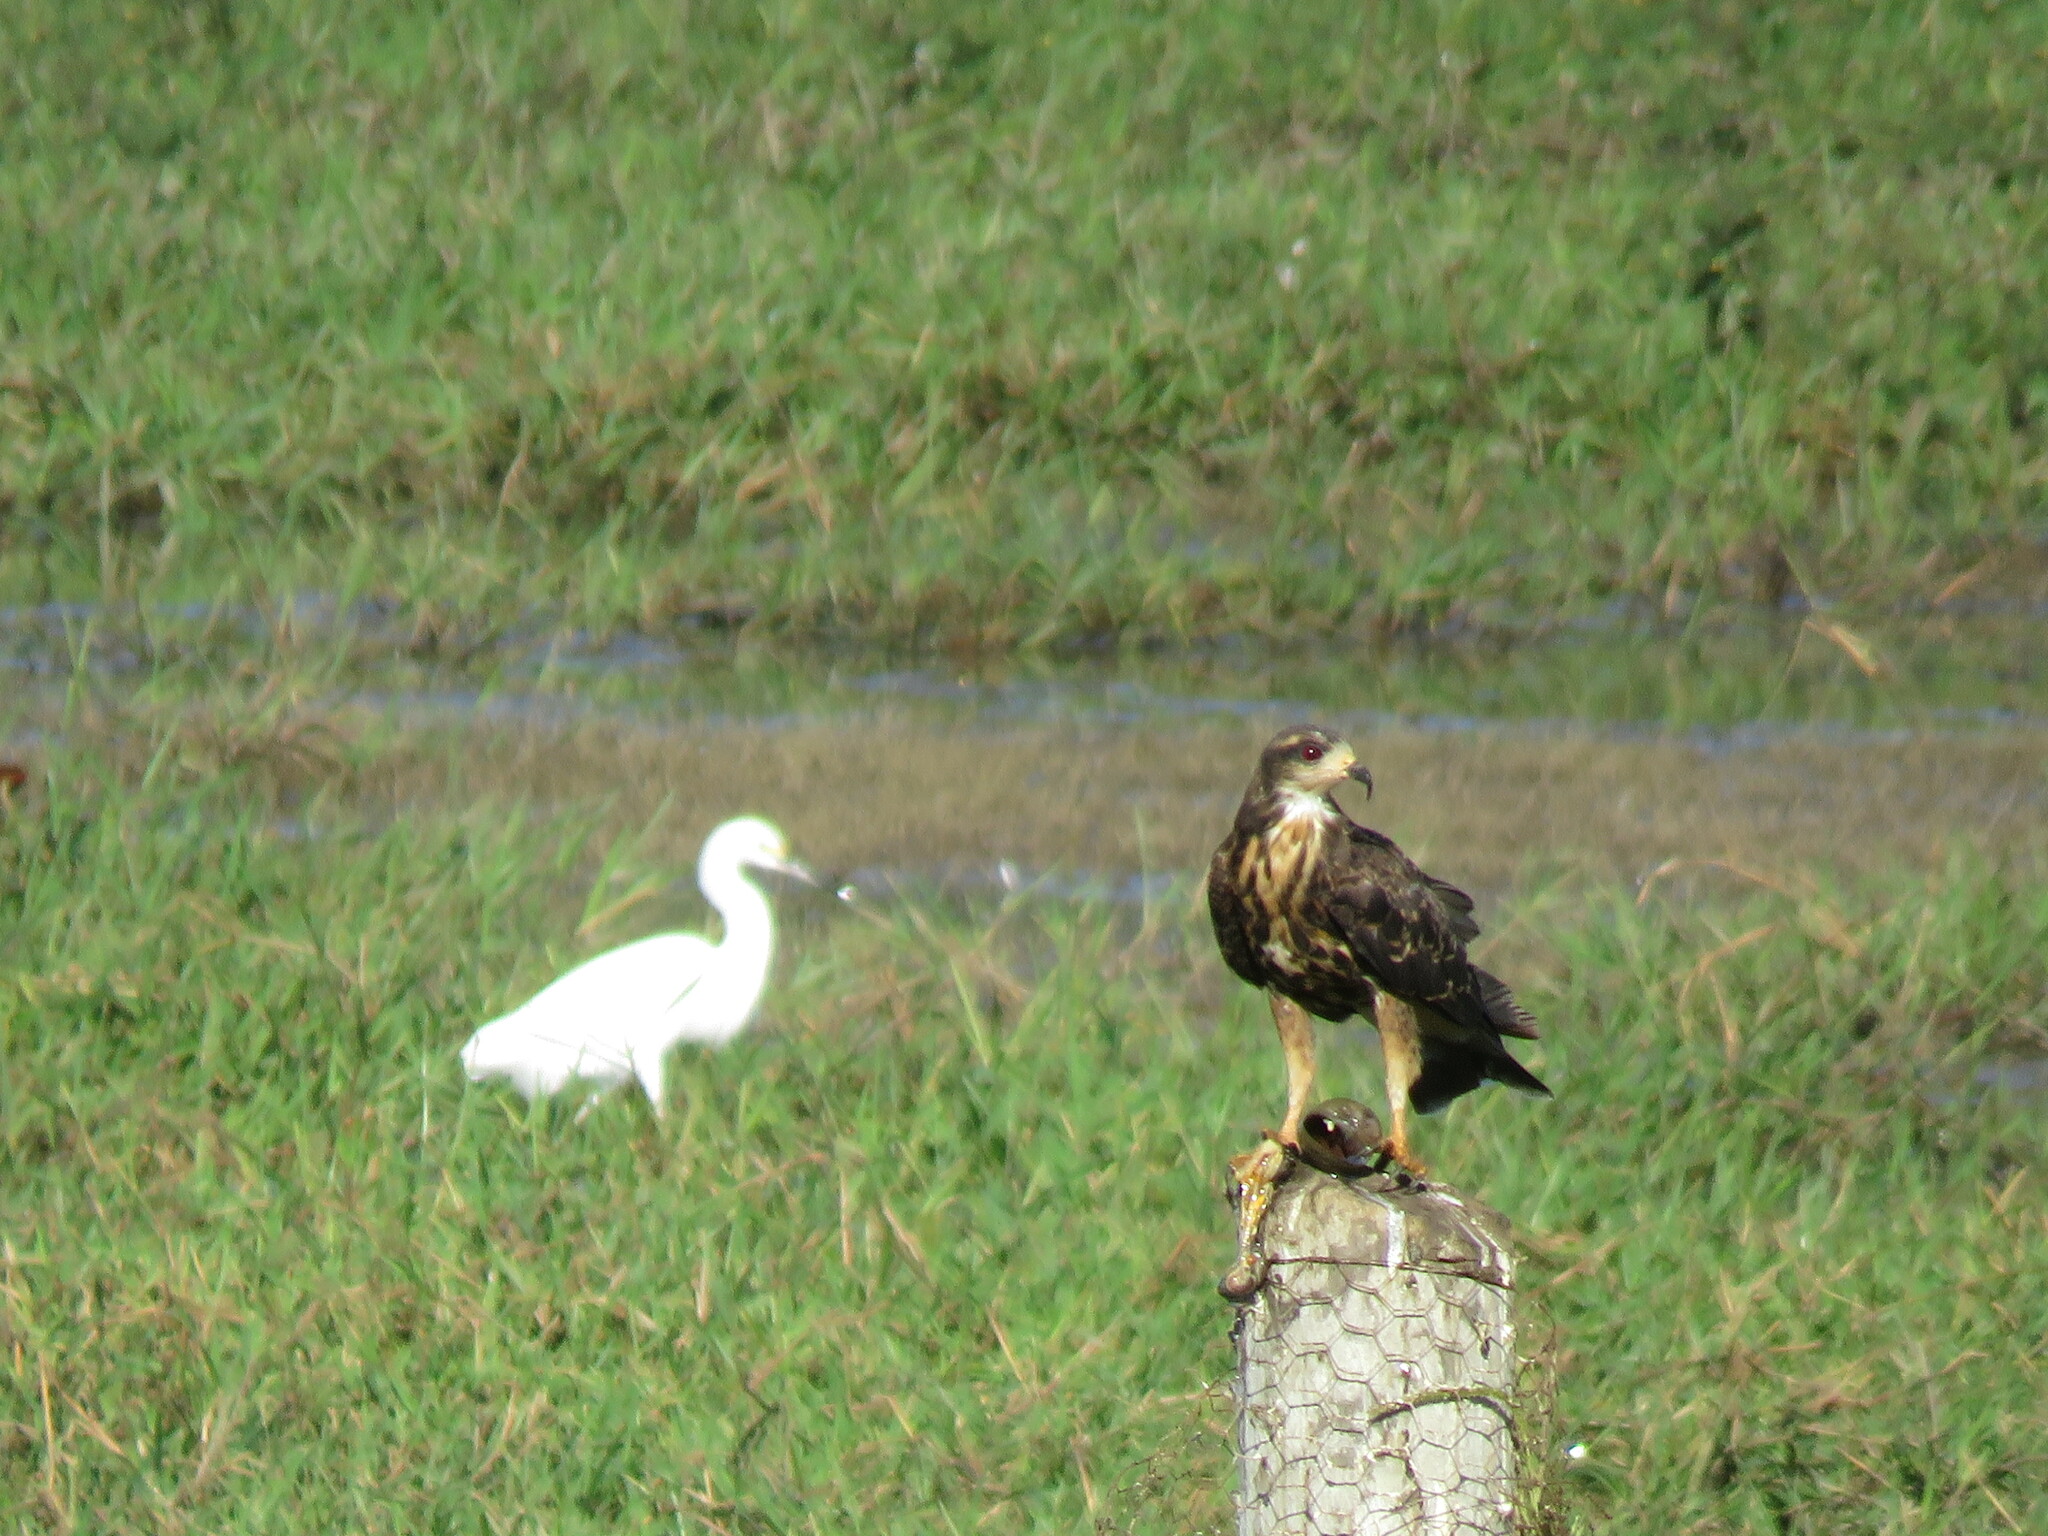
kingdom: Animalia
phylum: Chordata
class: Aves
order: Accipitriformes
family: Accipitridae
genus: Rostrhamus
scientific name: Rostrhamus sociabilis
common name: Snail kite
